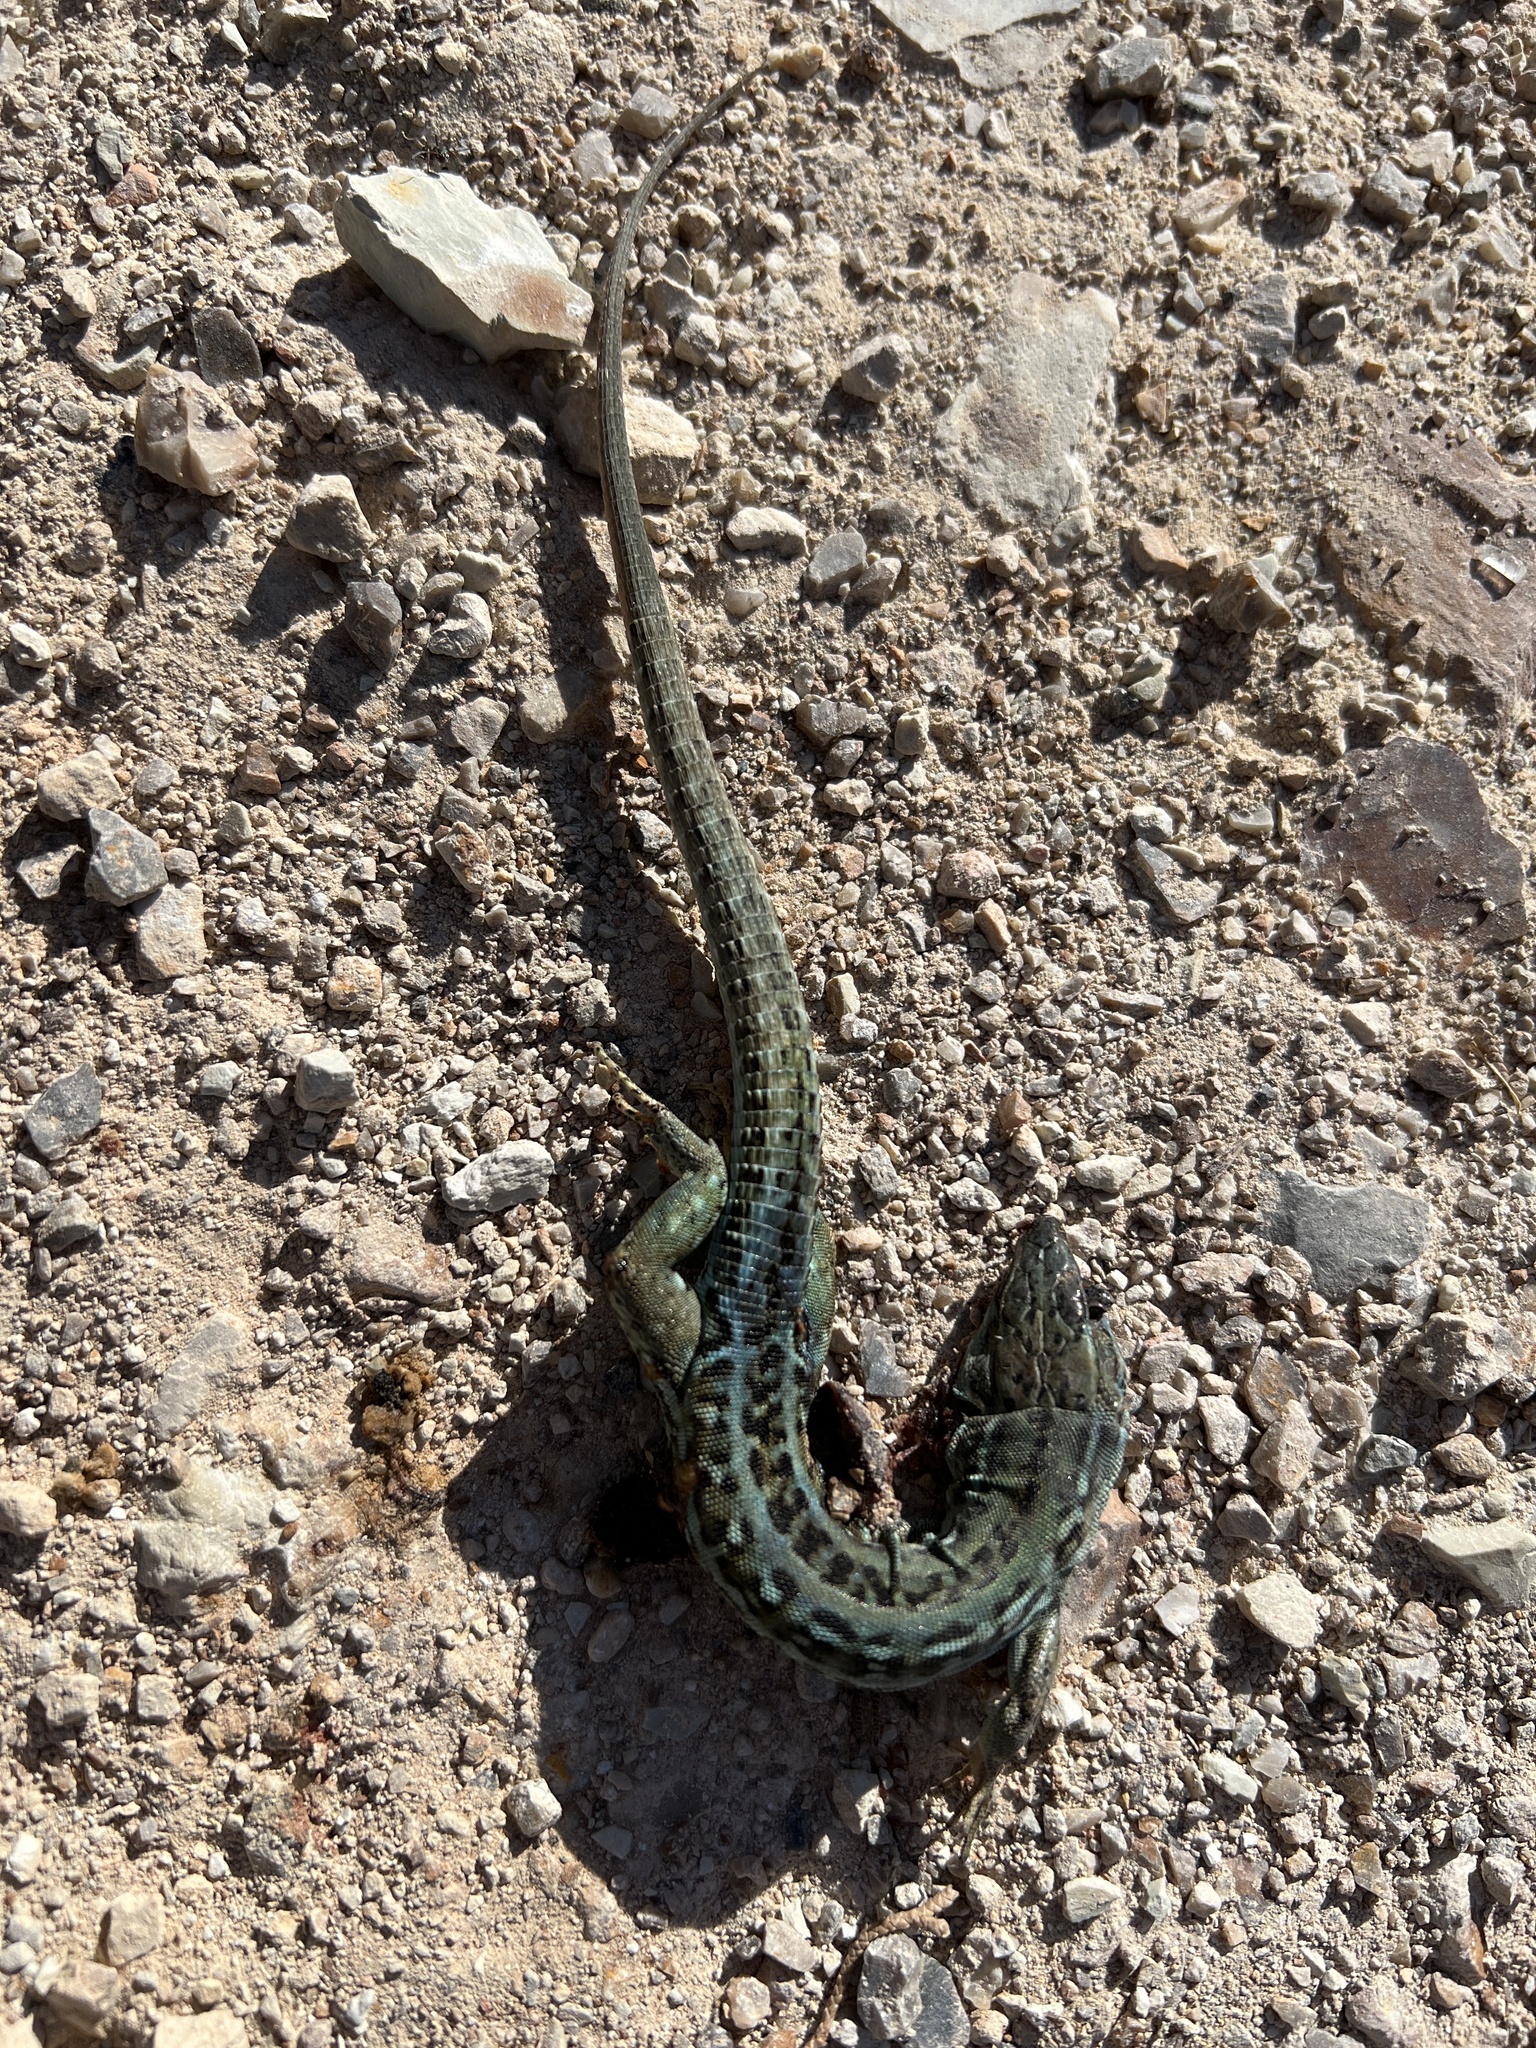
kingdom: Animalia
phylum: Chordata
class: Squamata
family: Lacertidae
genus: Podarcis
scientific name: Podarcis siculus
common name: Italian wall lizard
